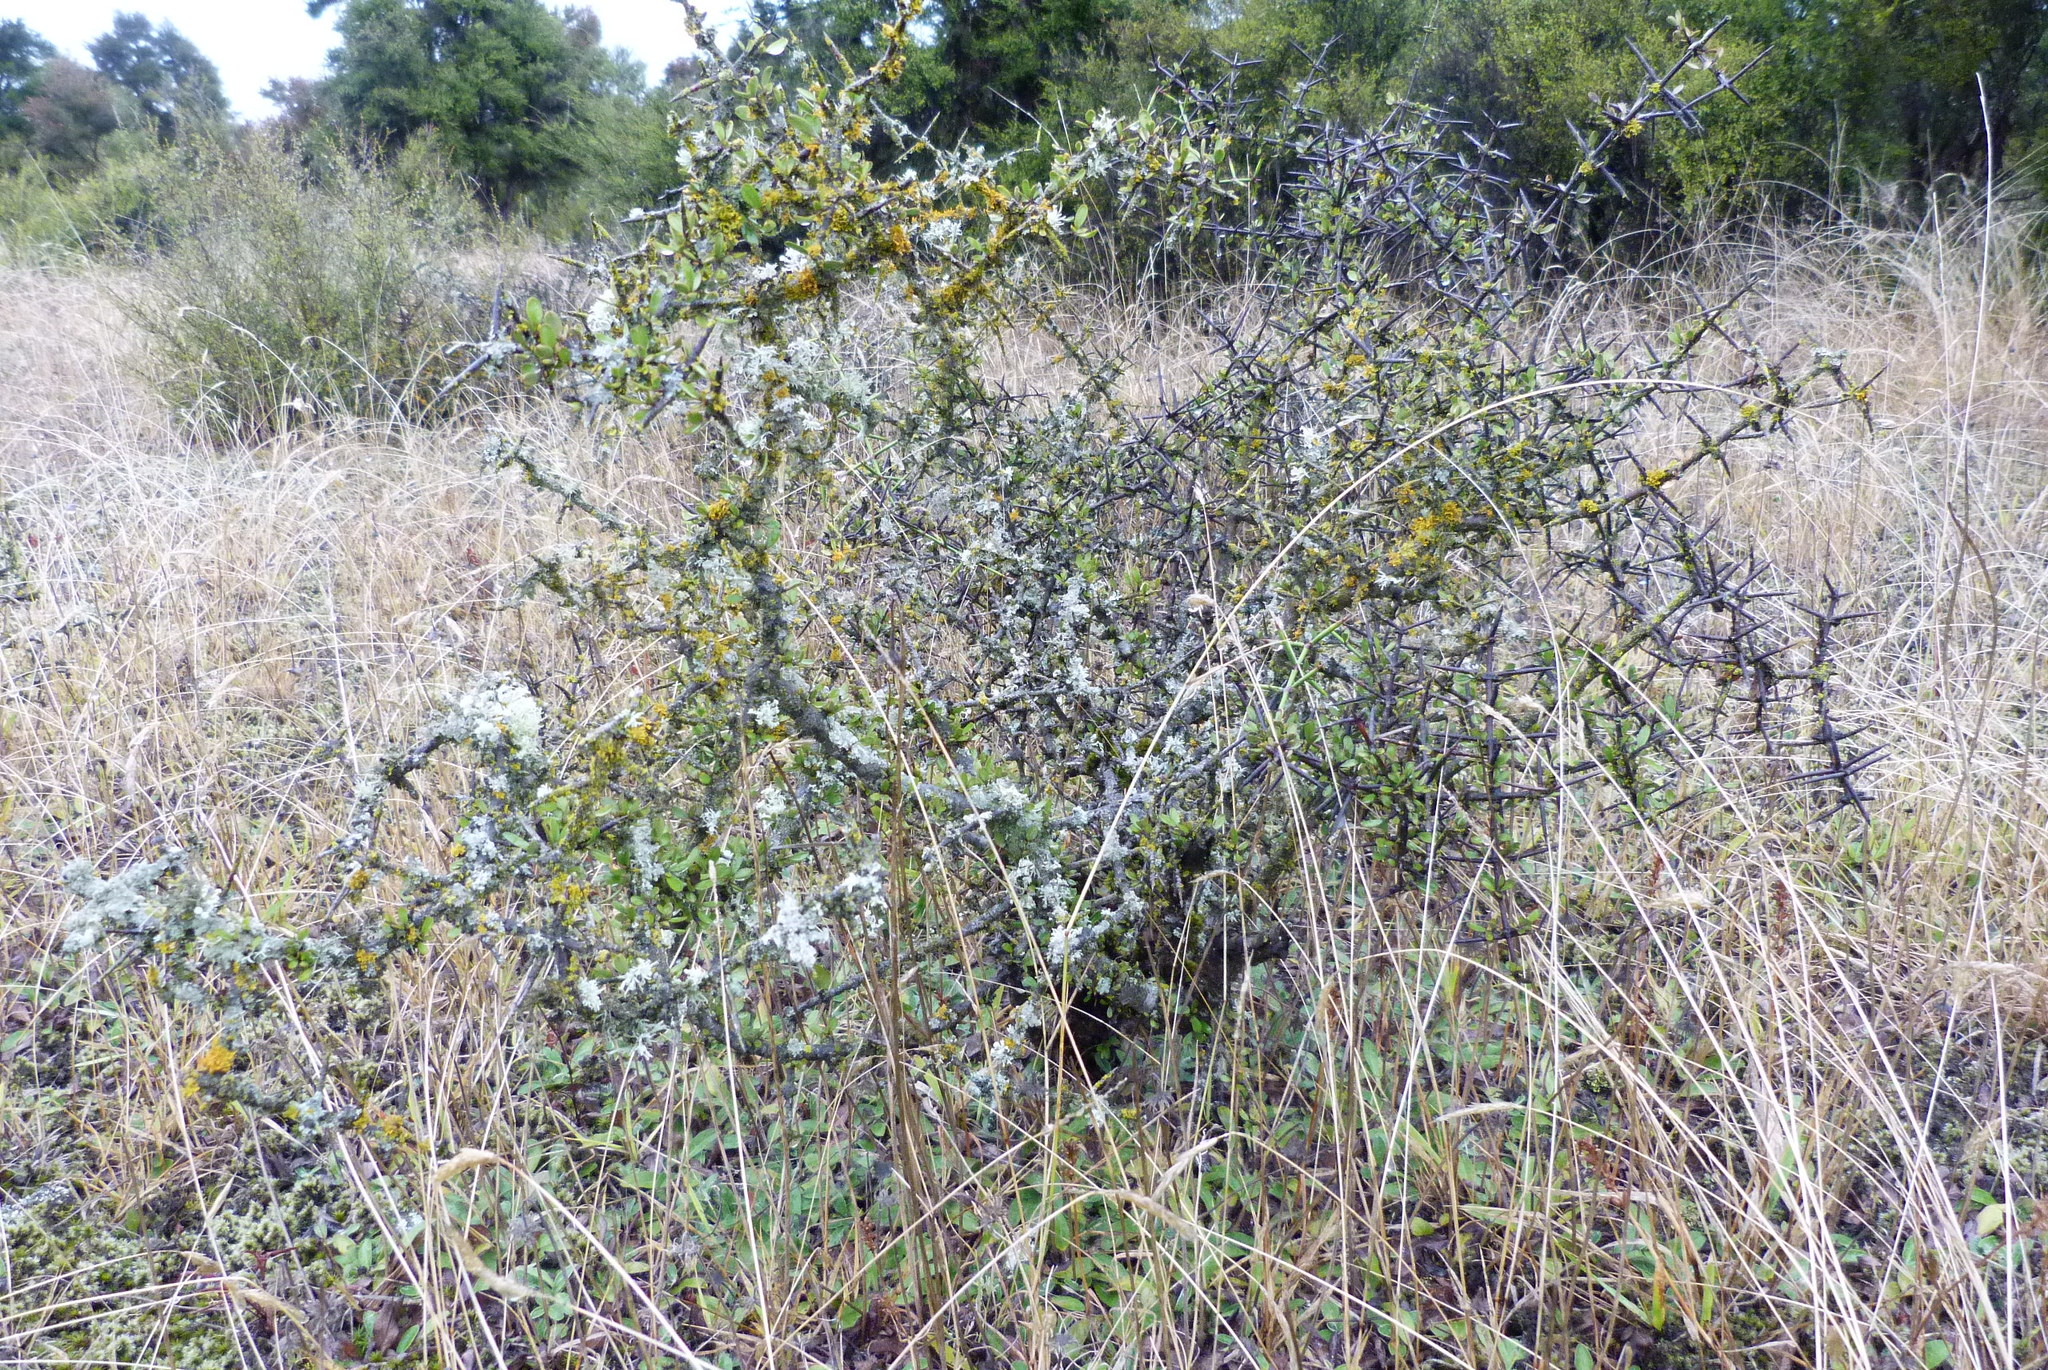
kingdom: Plantae
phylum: Tracheophyta
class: Magnoliopsida
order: Rosales
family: Rhamnaceae
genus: Discaria
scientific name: Discaria toumatou
